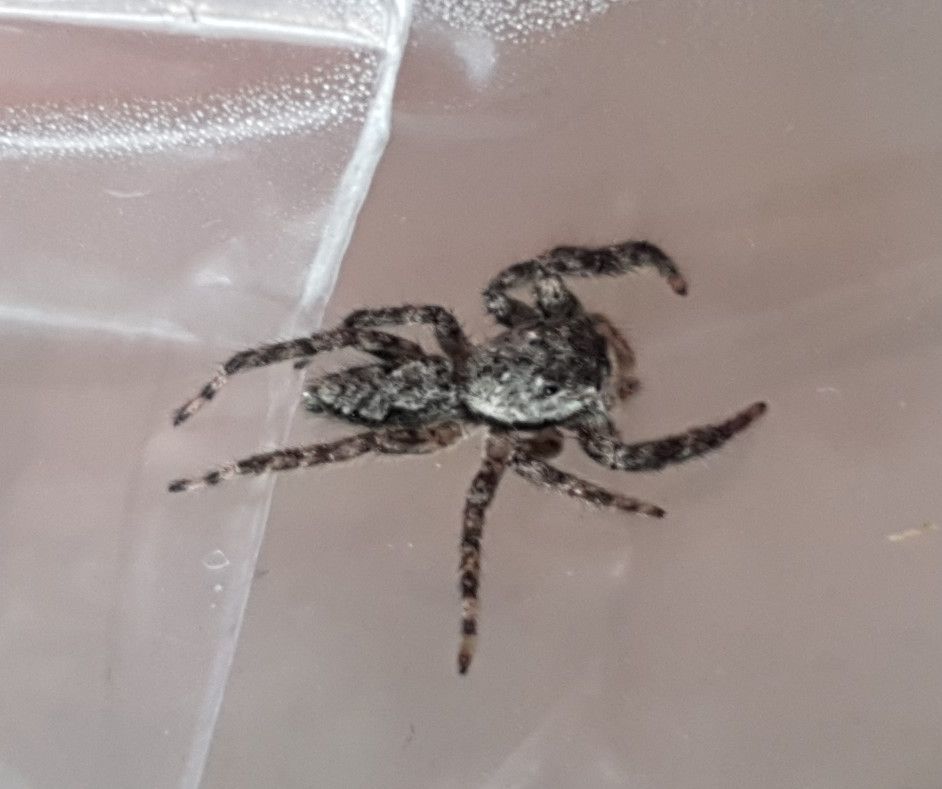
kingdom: Animalia
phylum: Arthropoda
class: Arachnida
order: Araneae
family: Salticidae
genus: Platycryptus
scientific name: Platycryptus undatus
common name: Tan jumping spider
